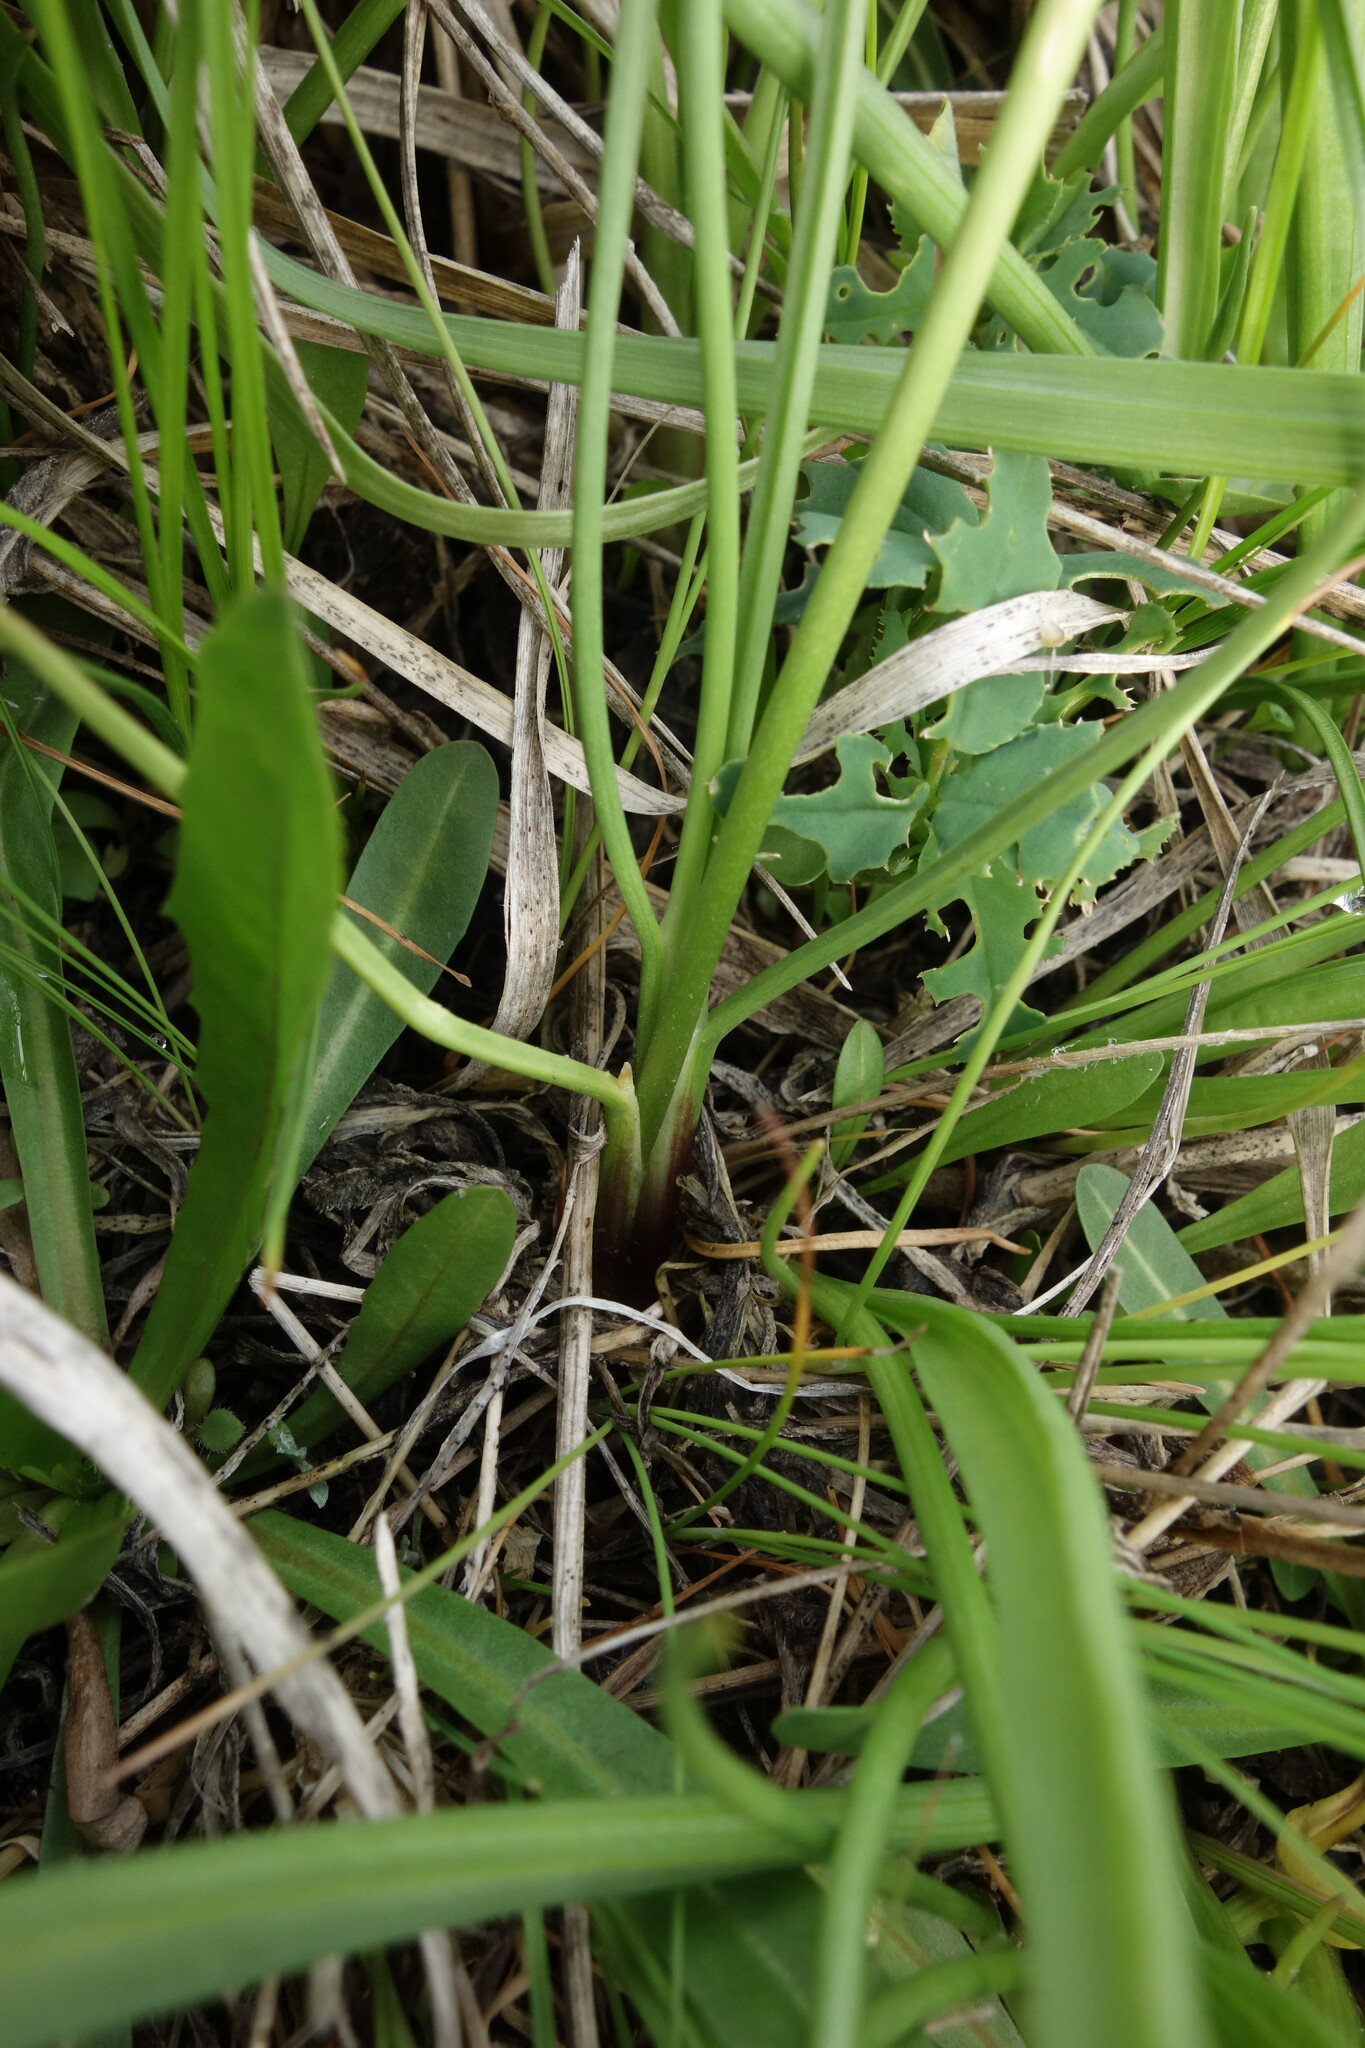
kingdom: Plantae
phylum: Tracheophyta
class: Liliopsida
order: Alismatales
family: Juncaginaceae
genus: Triglochin
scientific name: Triglochin maritima
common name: Sea arrowgrass
